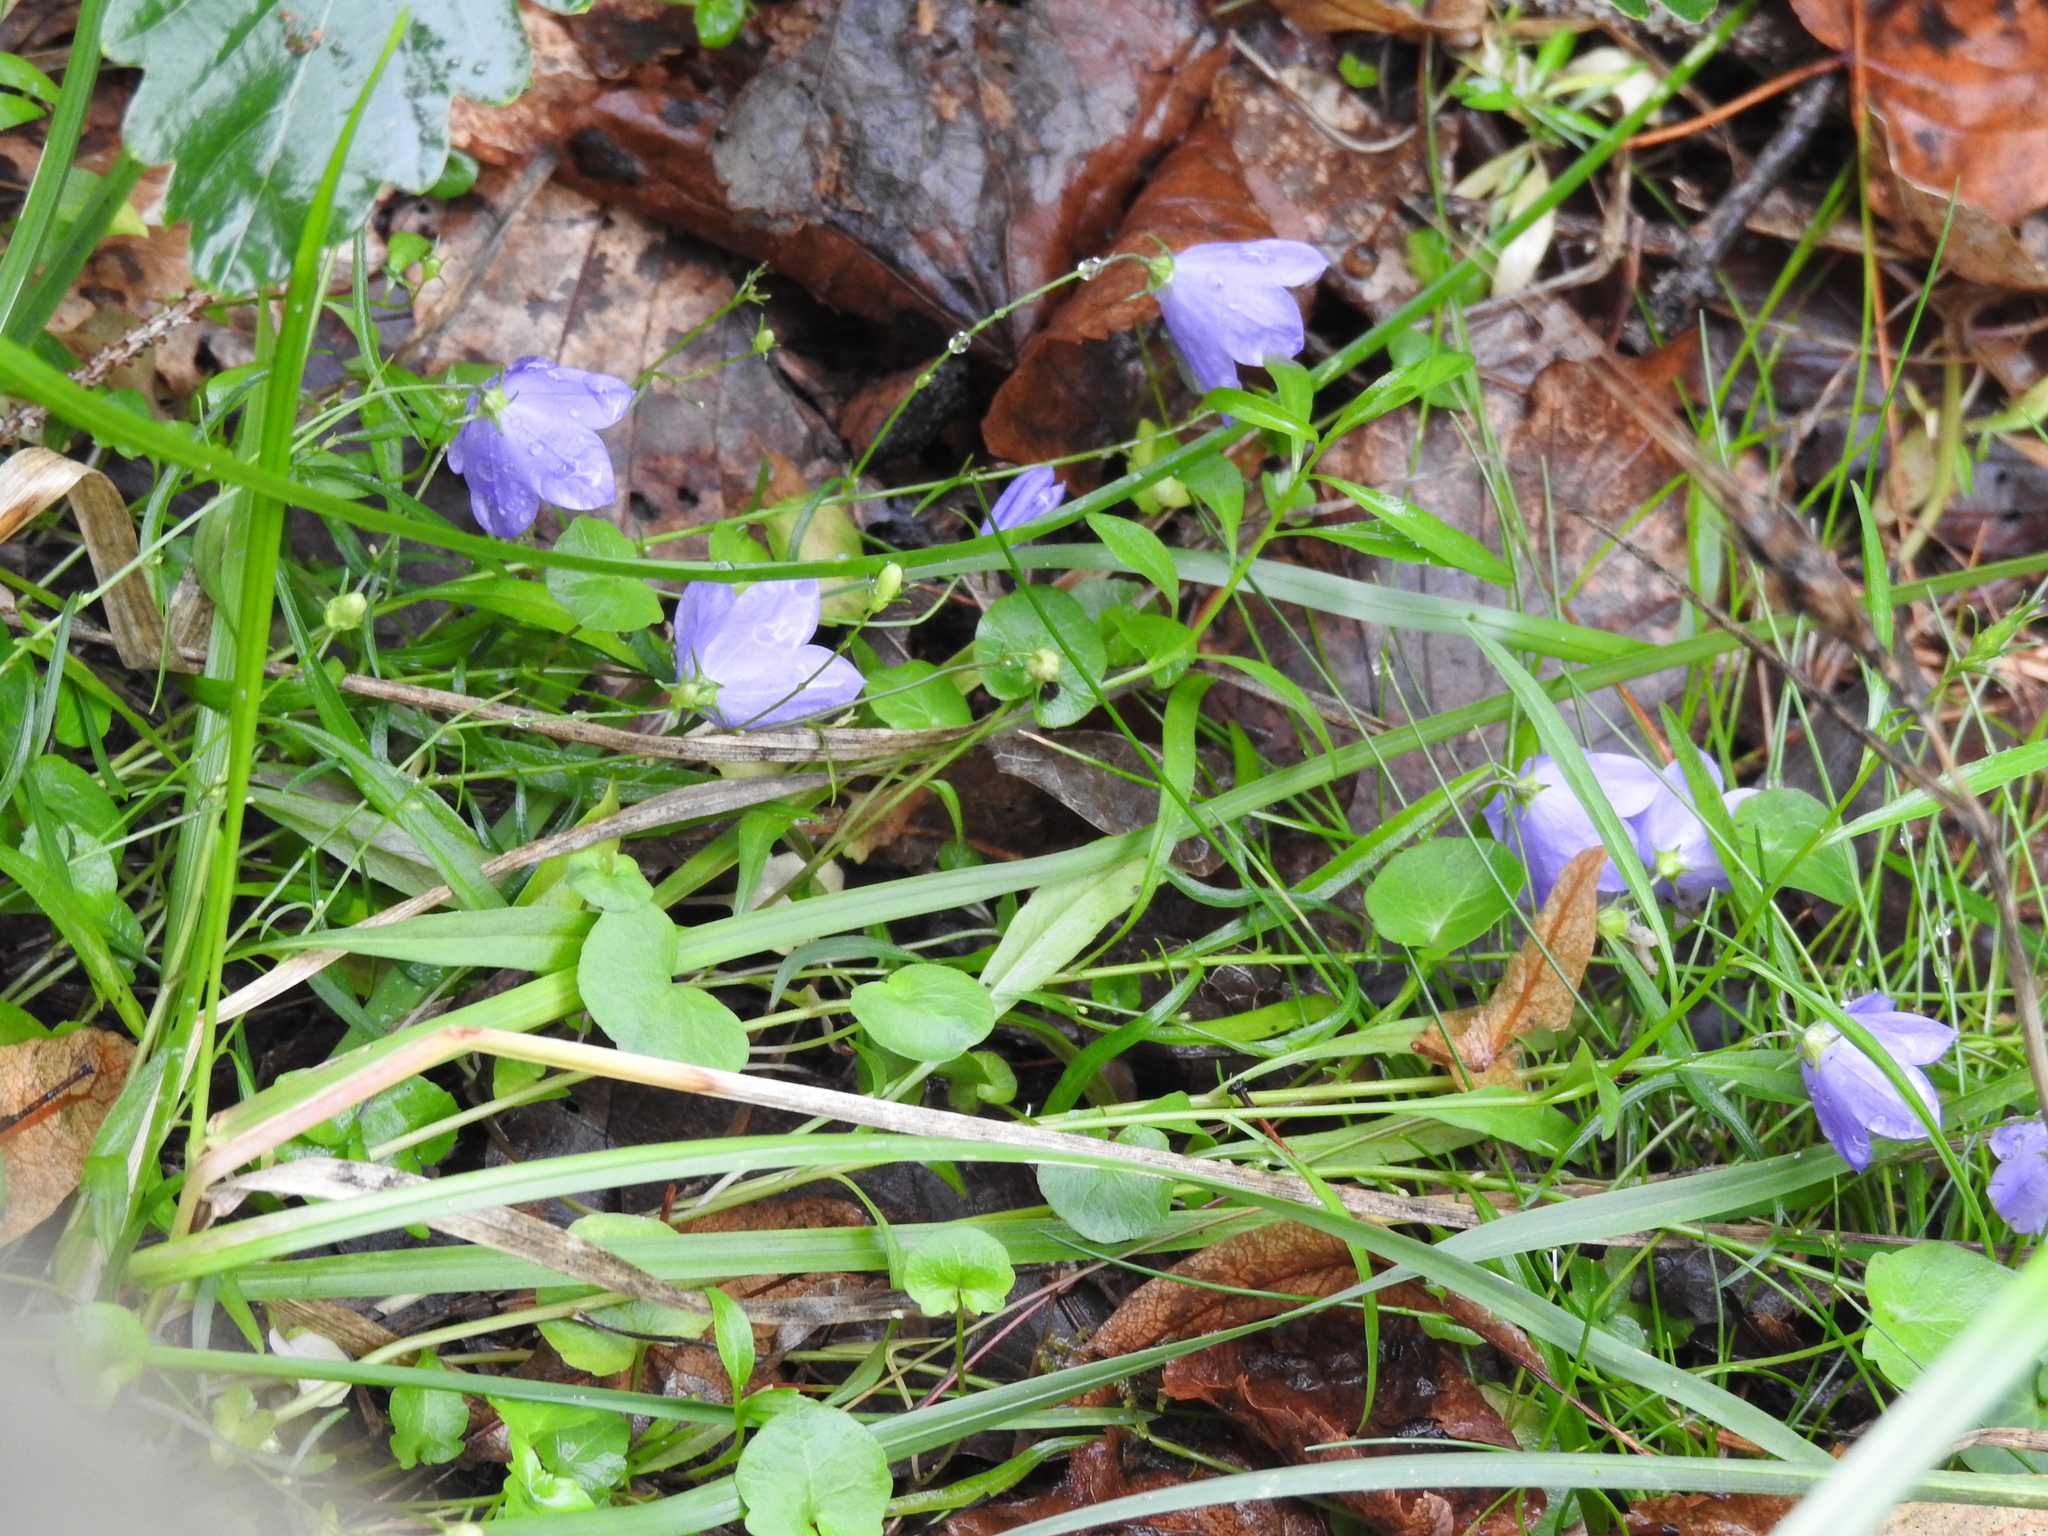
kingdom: Plantae
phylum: Tracheophyta
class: Magnoliopsida
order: Asterales
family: Campanulaceae
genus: Campanula
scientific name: Campanula rotundifolia
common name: Harebell
